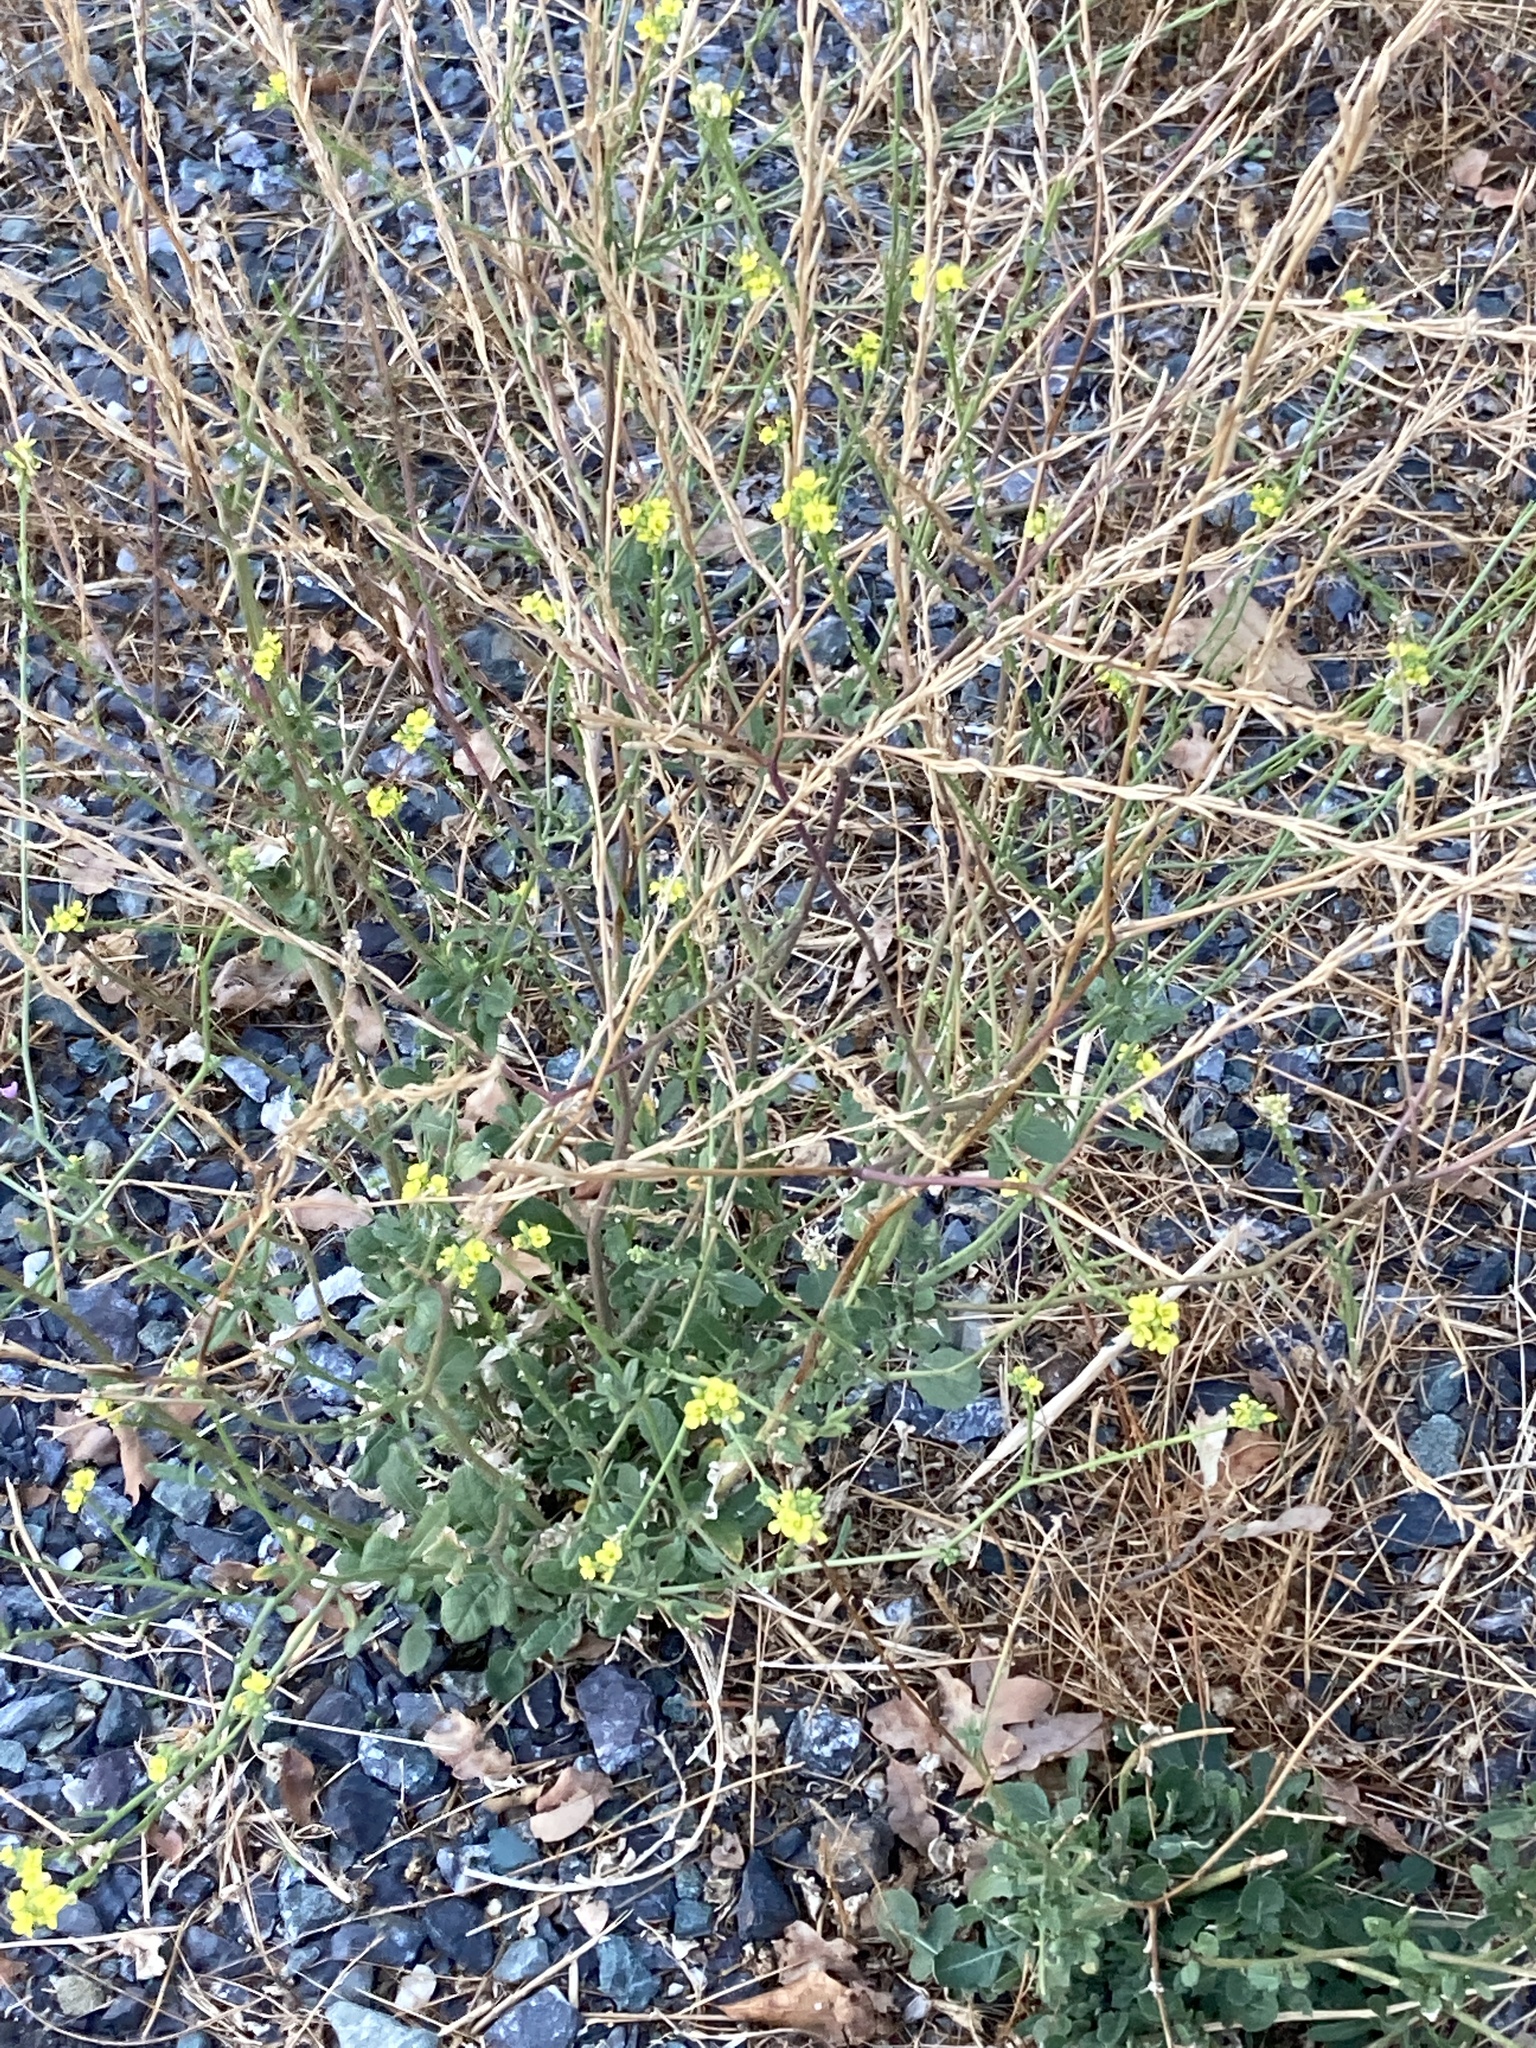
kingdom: Plantae
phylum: Tracheophyta
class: Magnoliopsida
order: Brassicales
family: Brassicaceae
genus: Hirschfeldia
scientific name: Hirschfeldia incana
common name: Hoary mustard
